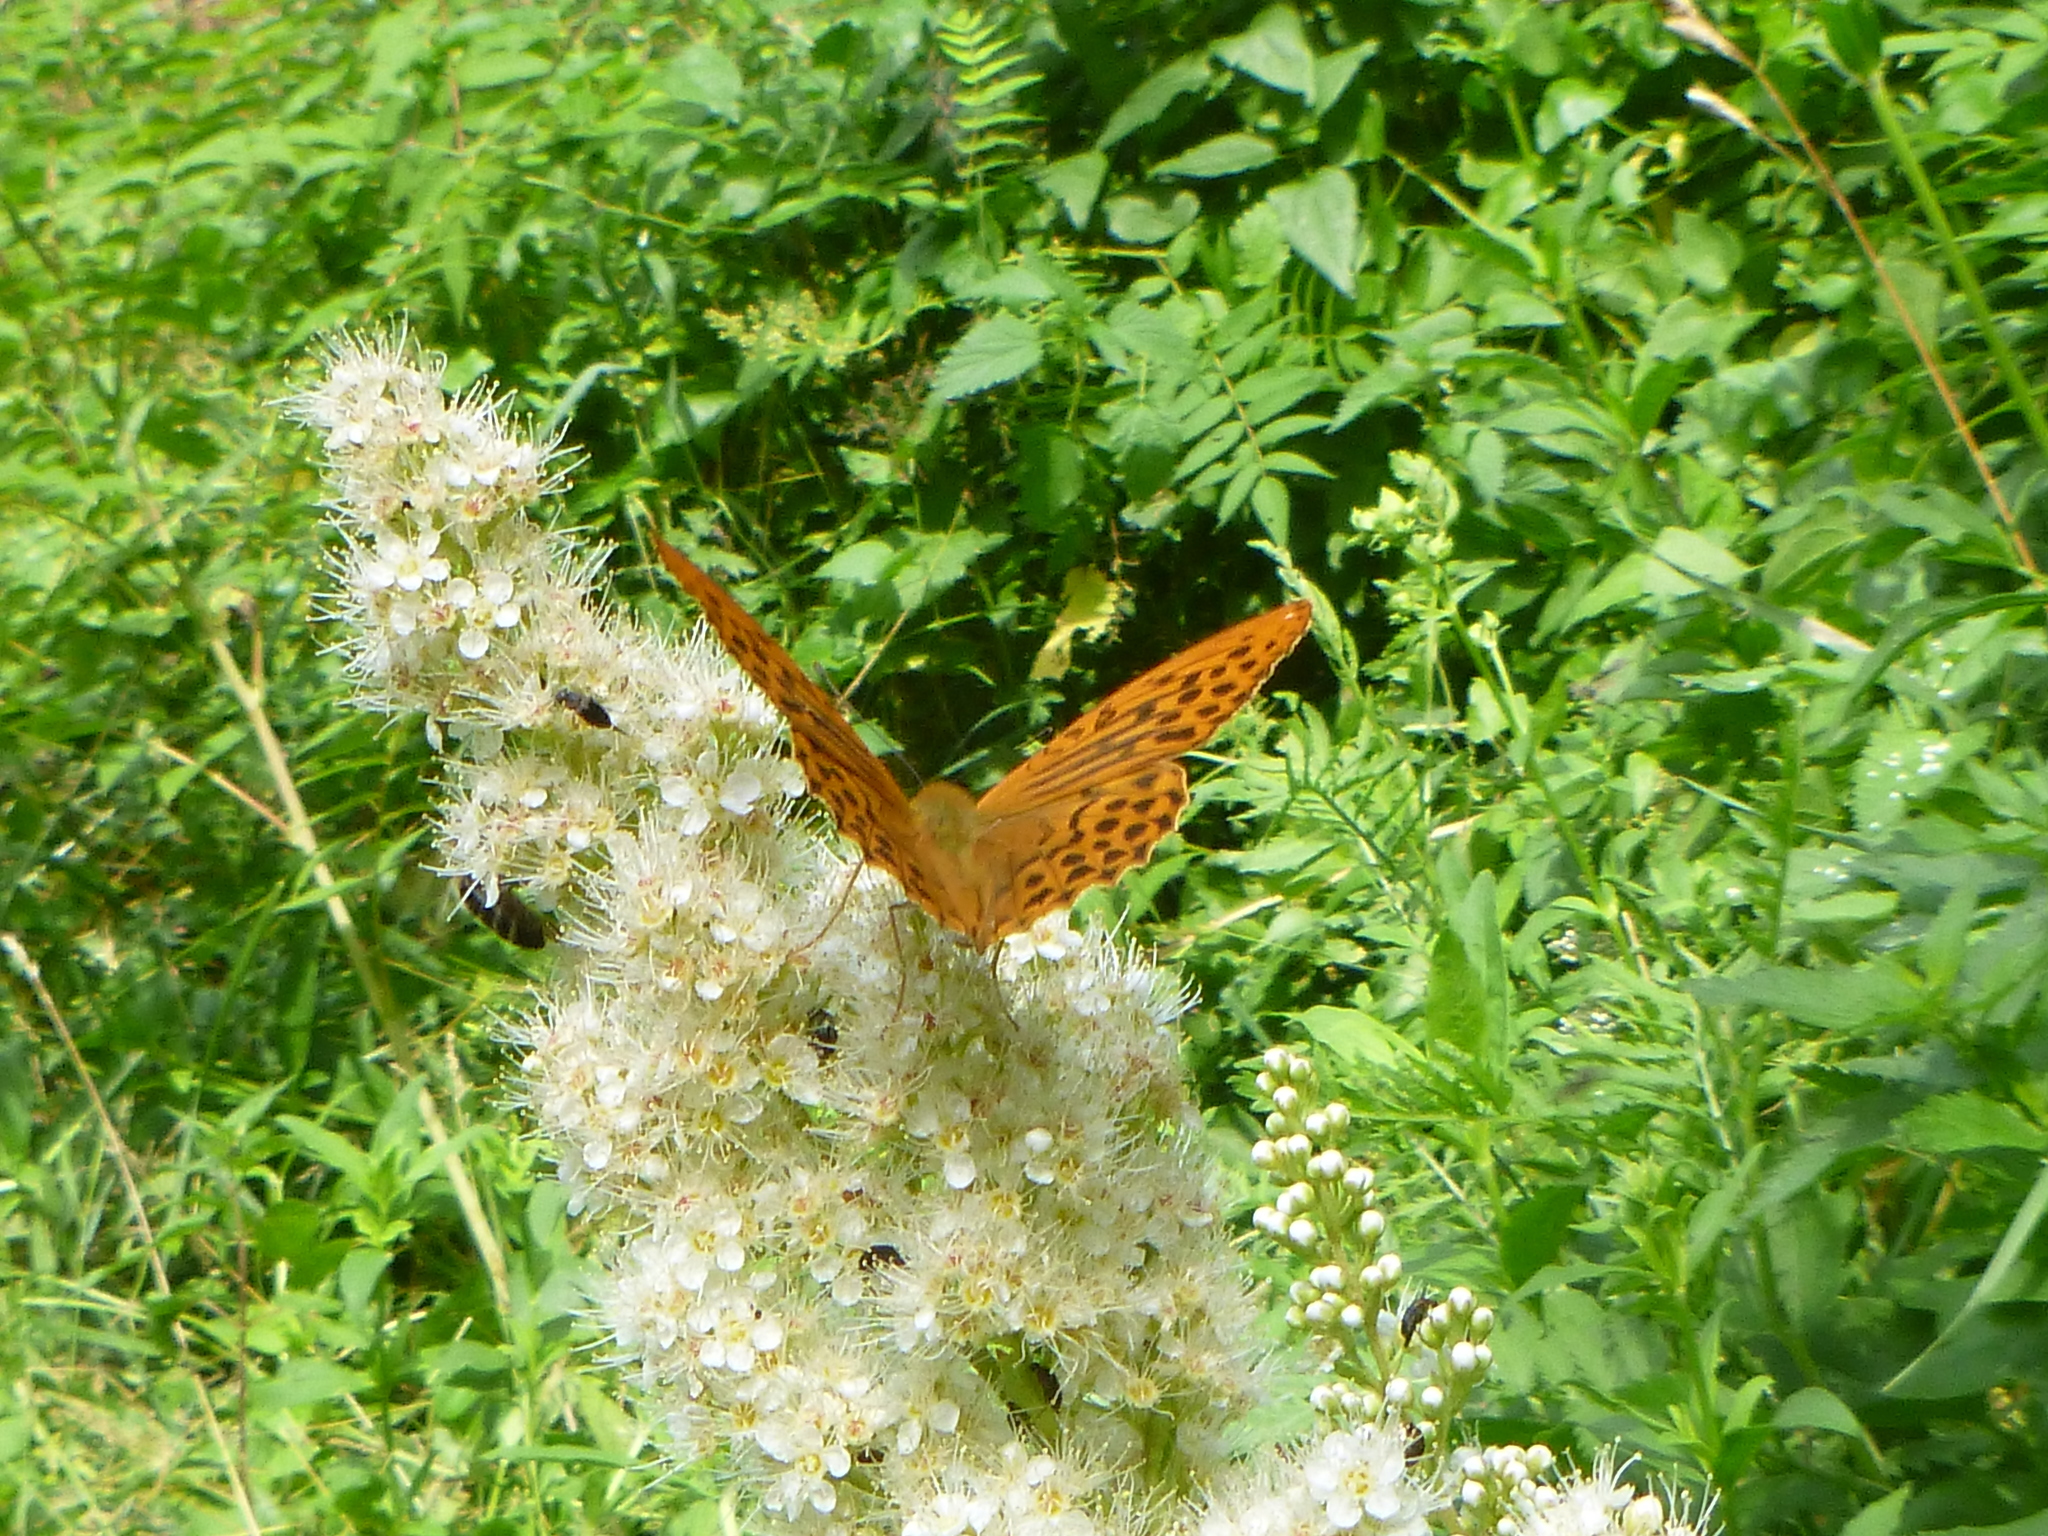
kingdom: Animalia
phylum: Arthropoda
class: Insecta
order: Lepidoptera
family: Nymphalidae
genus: Argynnis
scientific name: Argynnis paphia
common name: Silver-washed fritillary
